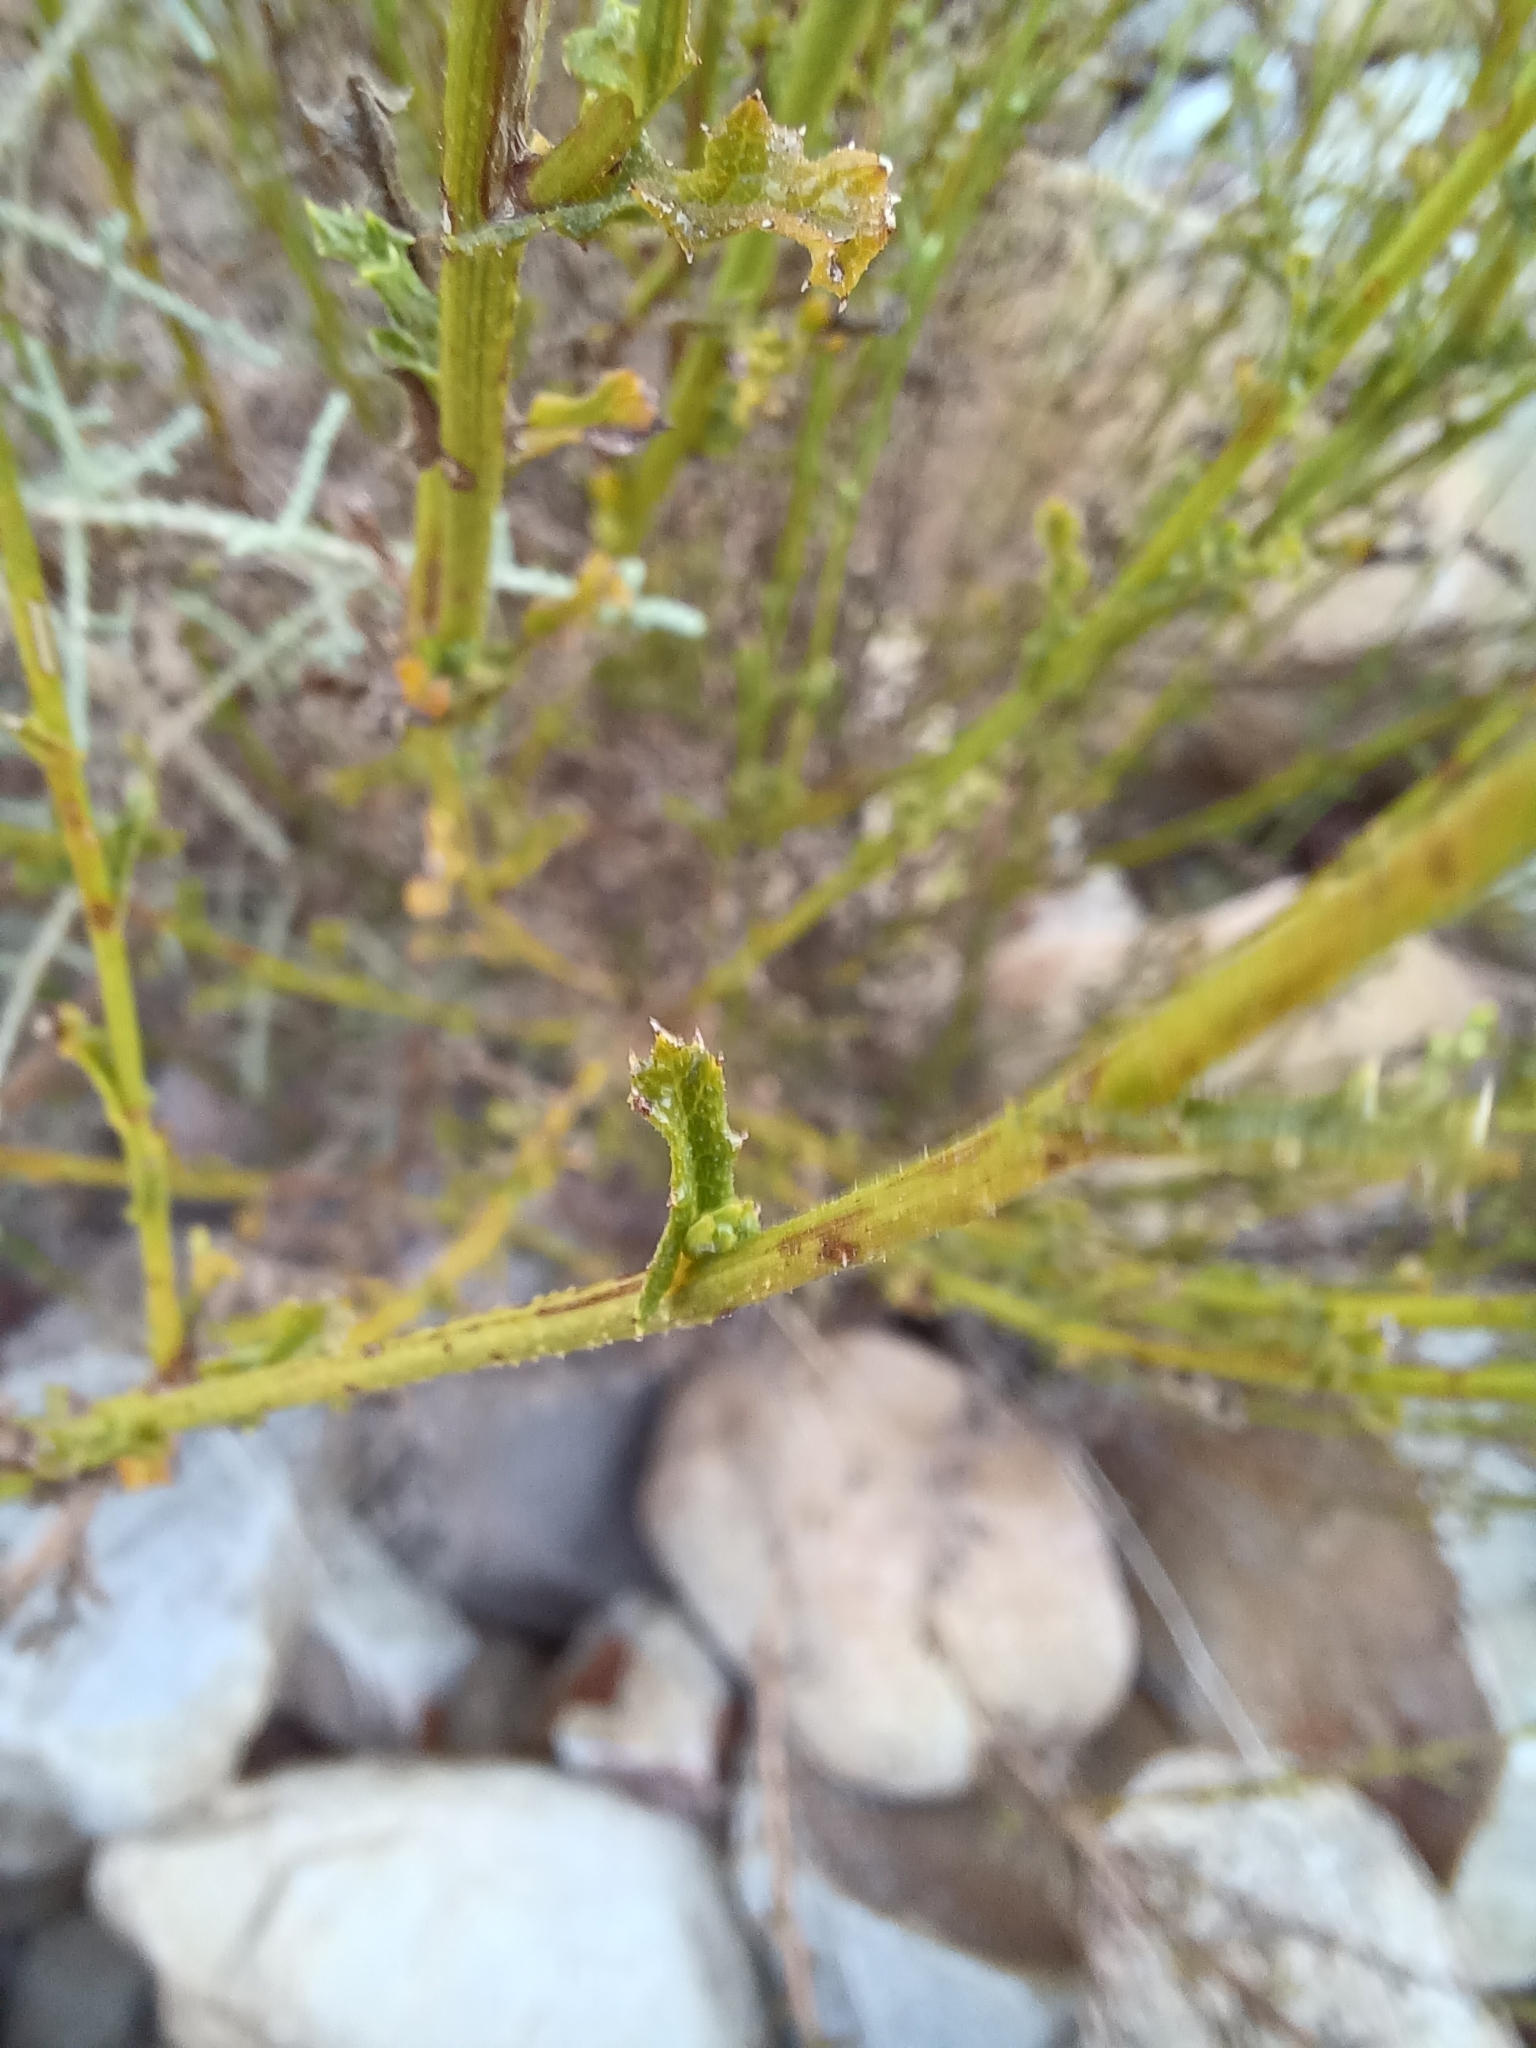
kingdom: Plantae
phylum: Tracheophyta
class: Magnoliopsida
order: Asterales
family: Asteraceae
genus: Senecio
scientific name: Senecio pubigerus
